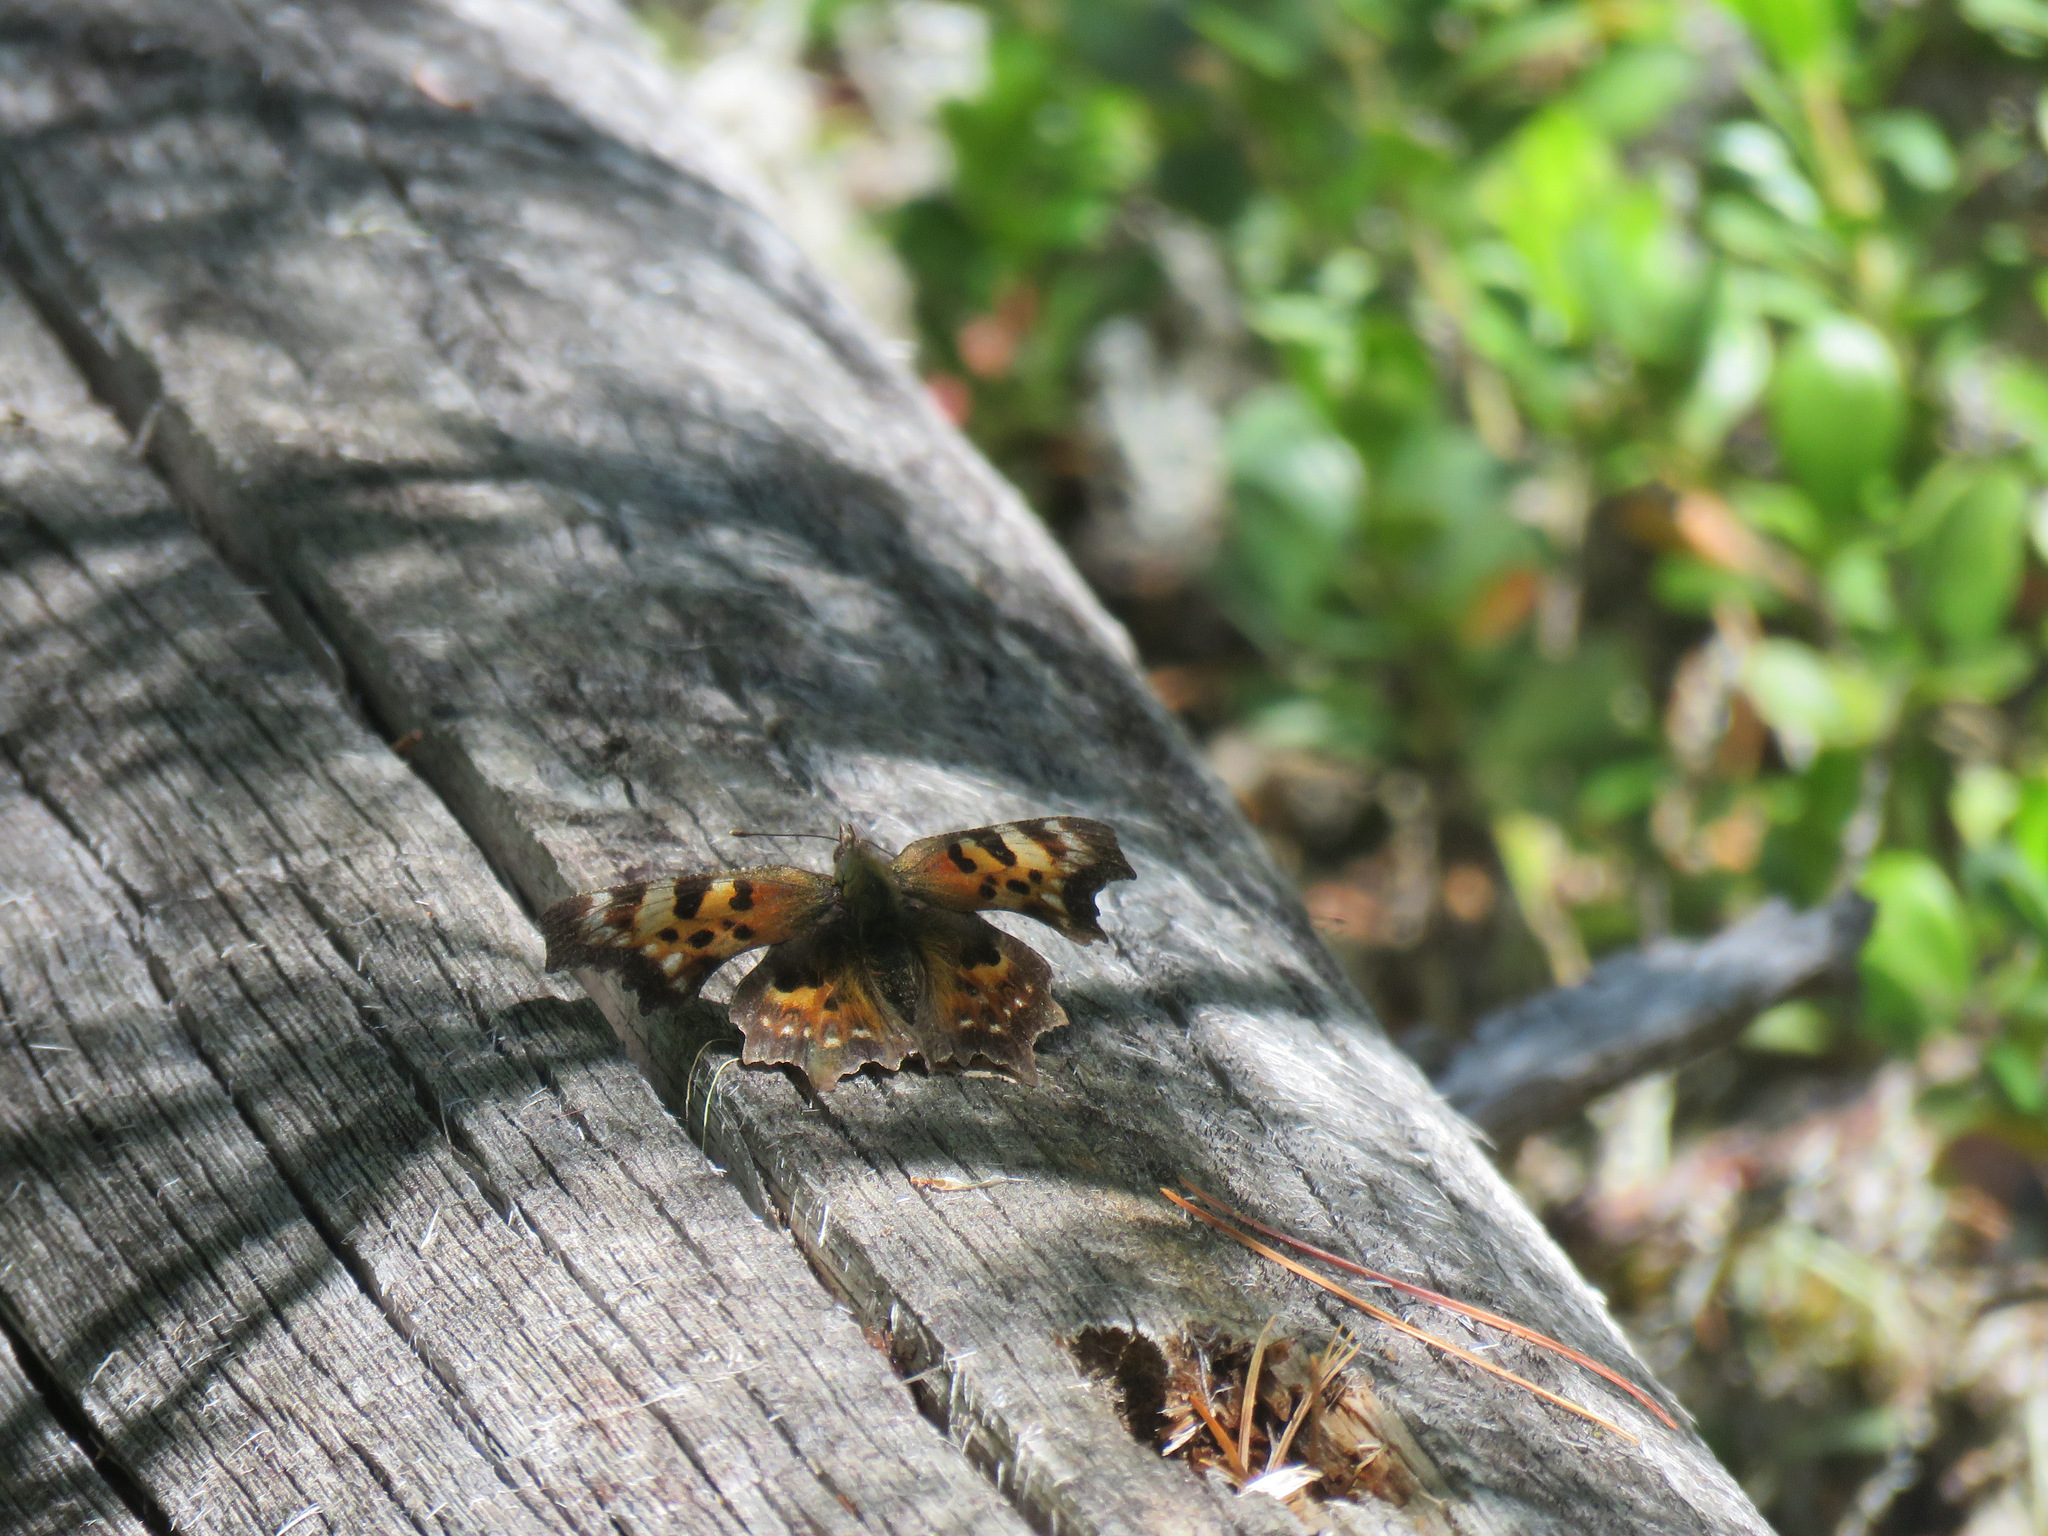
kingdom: Animalia
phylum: Arthropoda
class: Insecta
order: Lepidoptera
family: Nymphalidae
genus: Polygonia
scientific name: Polygonia faunus
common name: Green comma
